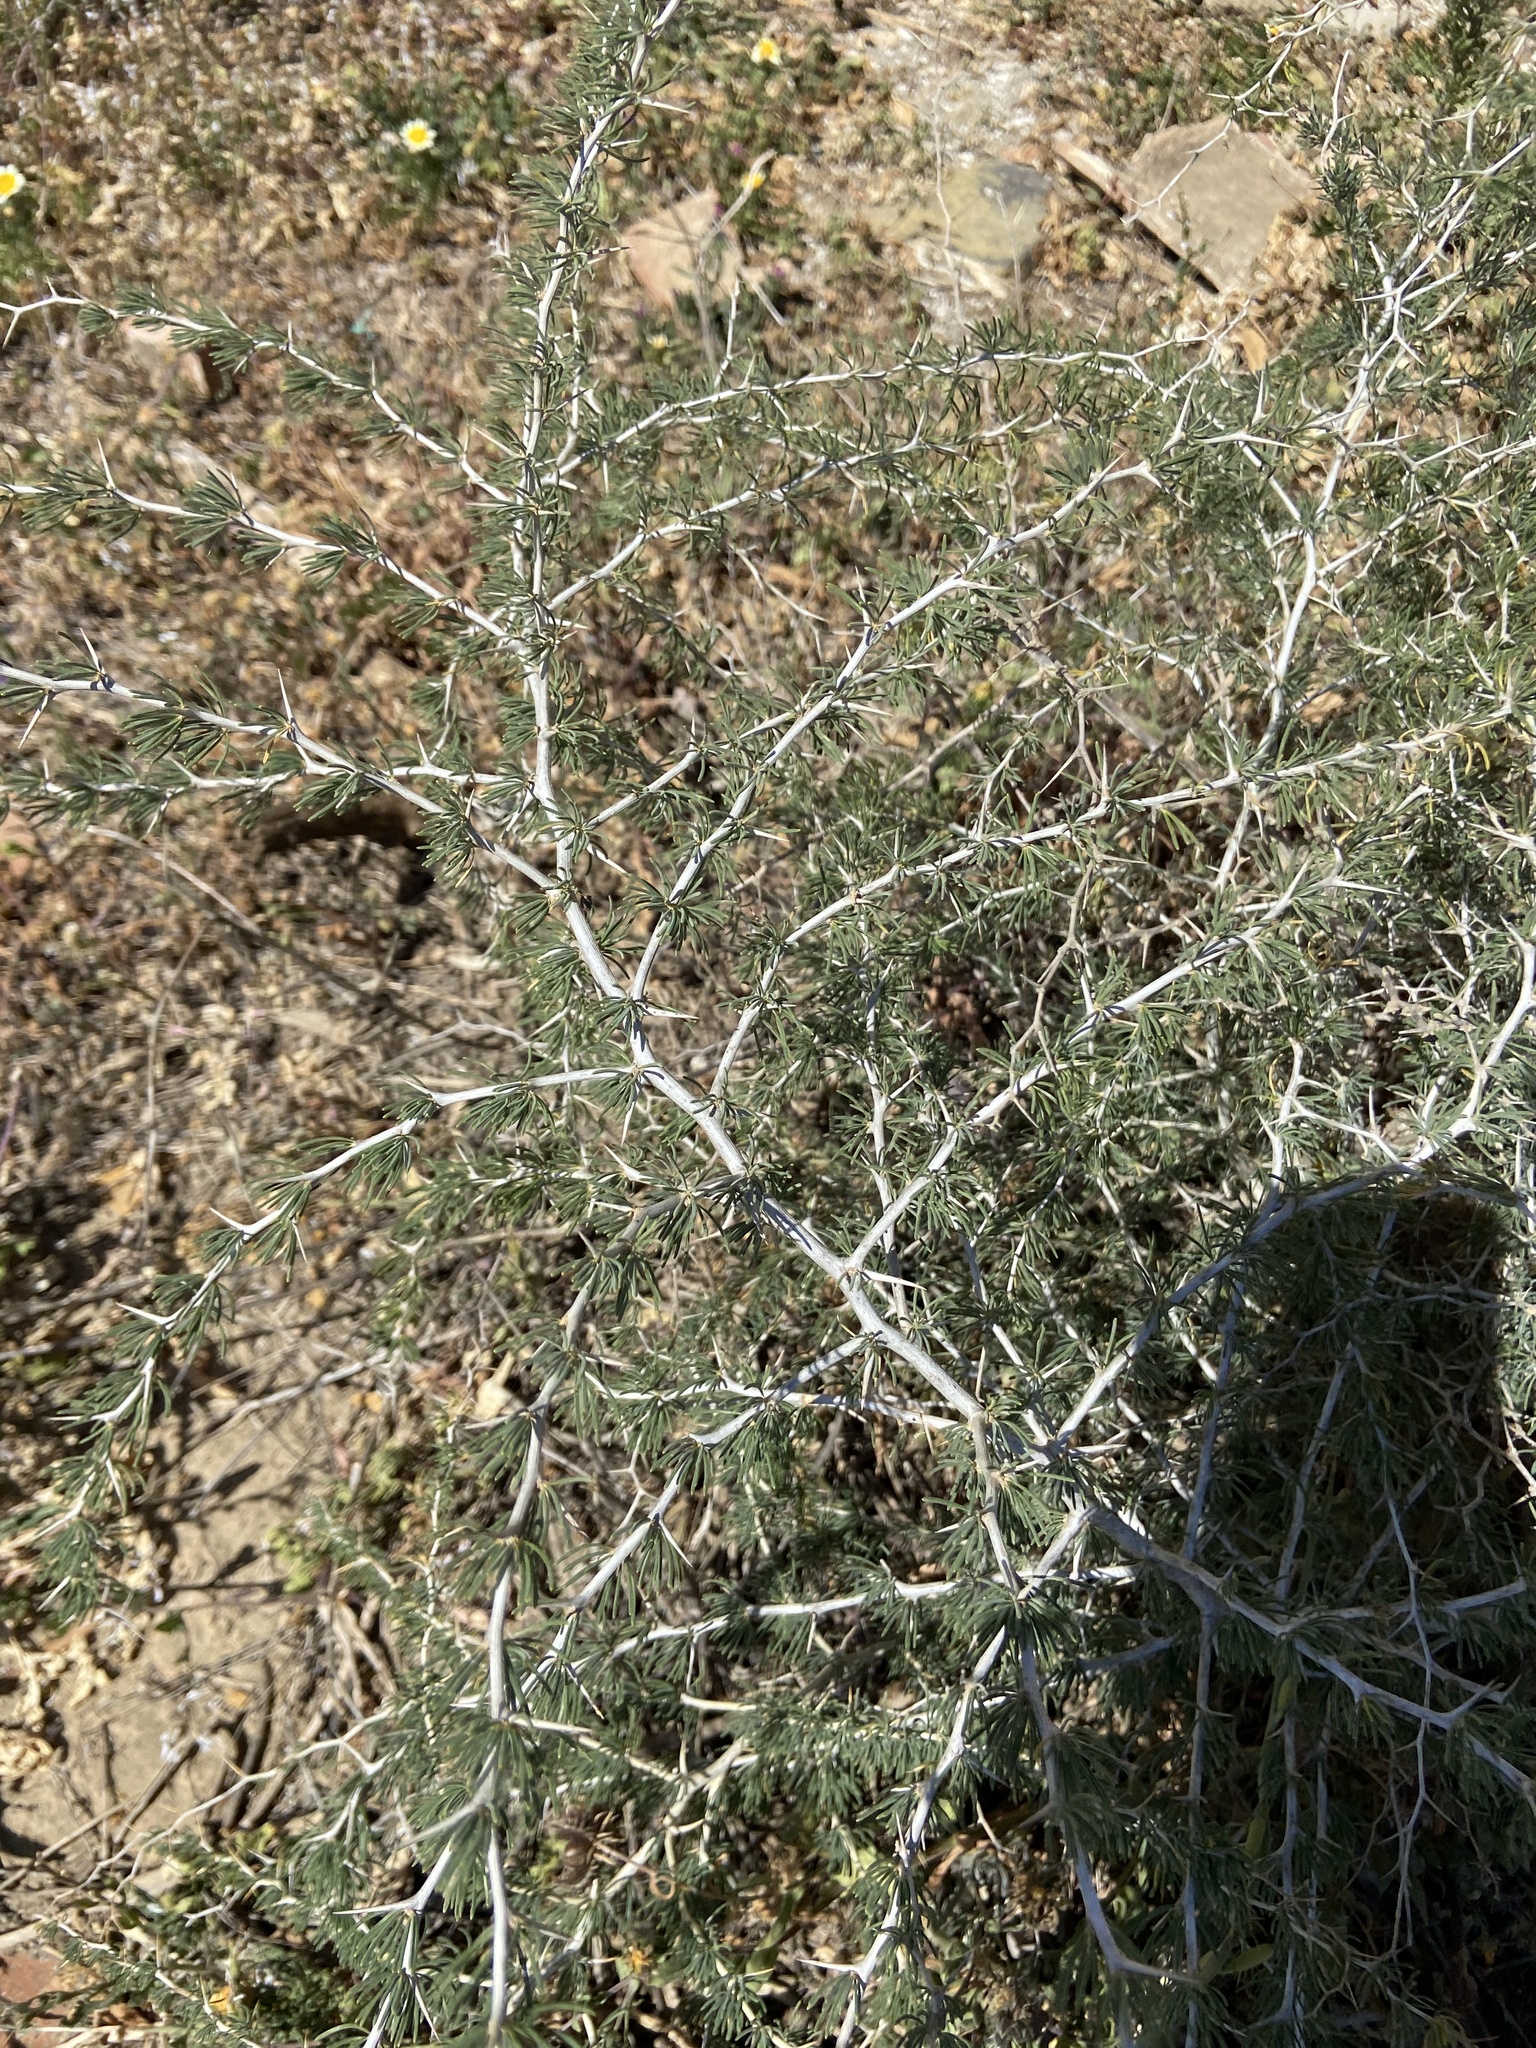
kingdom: Plantae
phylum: Tracheophyta
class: Liliopsida
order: Asparagales
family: Asparagaceae
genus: Asparagus
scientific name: Asparagus albus
